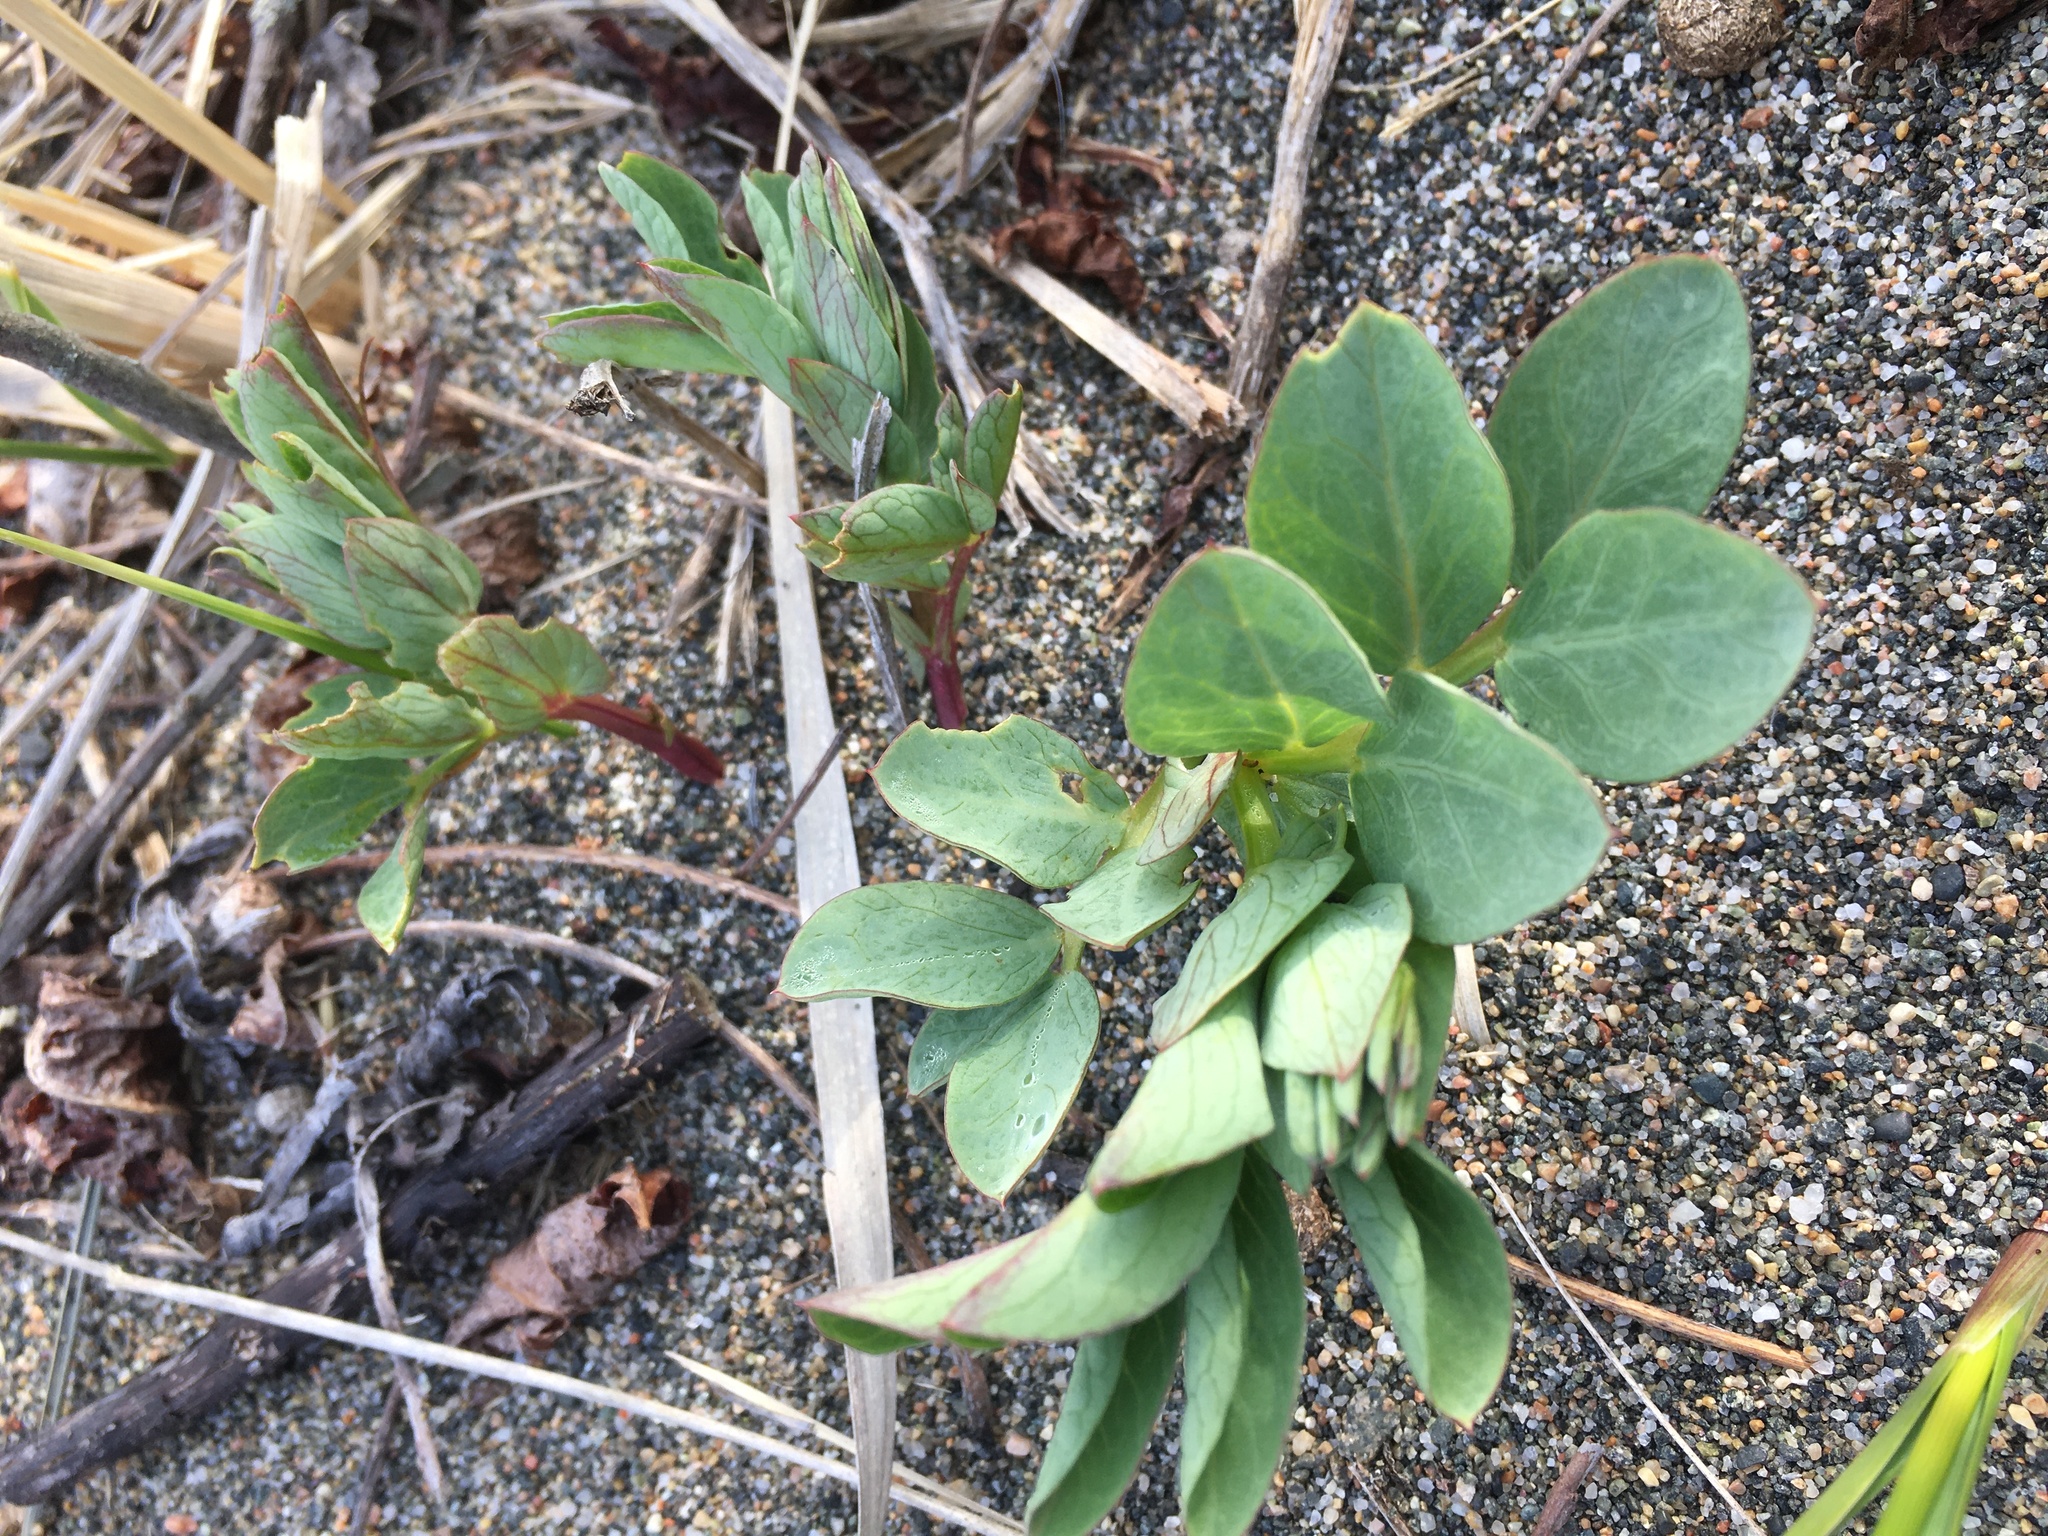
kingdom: Plantae
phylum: Tracheophyta
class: Magnoliopsida
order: Fabales
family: Fabaceae
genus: Lathyrus
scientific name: Lathyrus japonicus
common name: Sea pea
